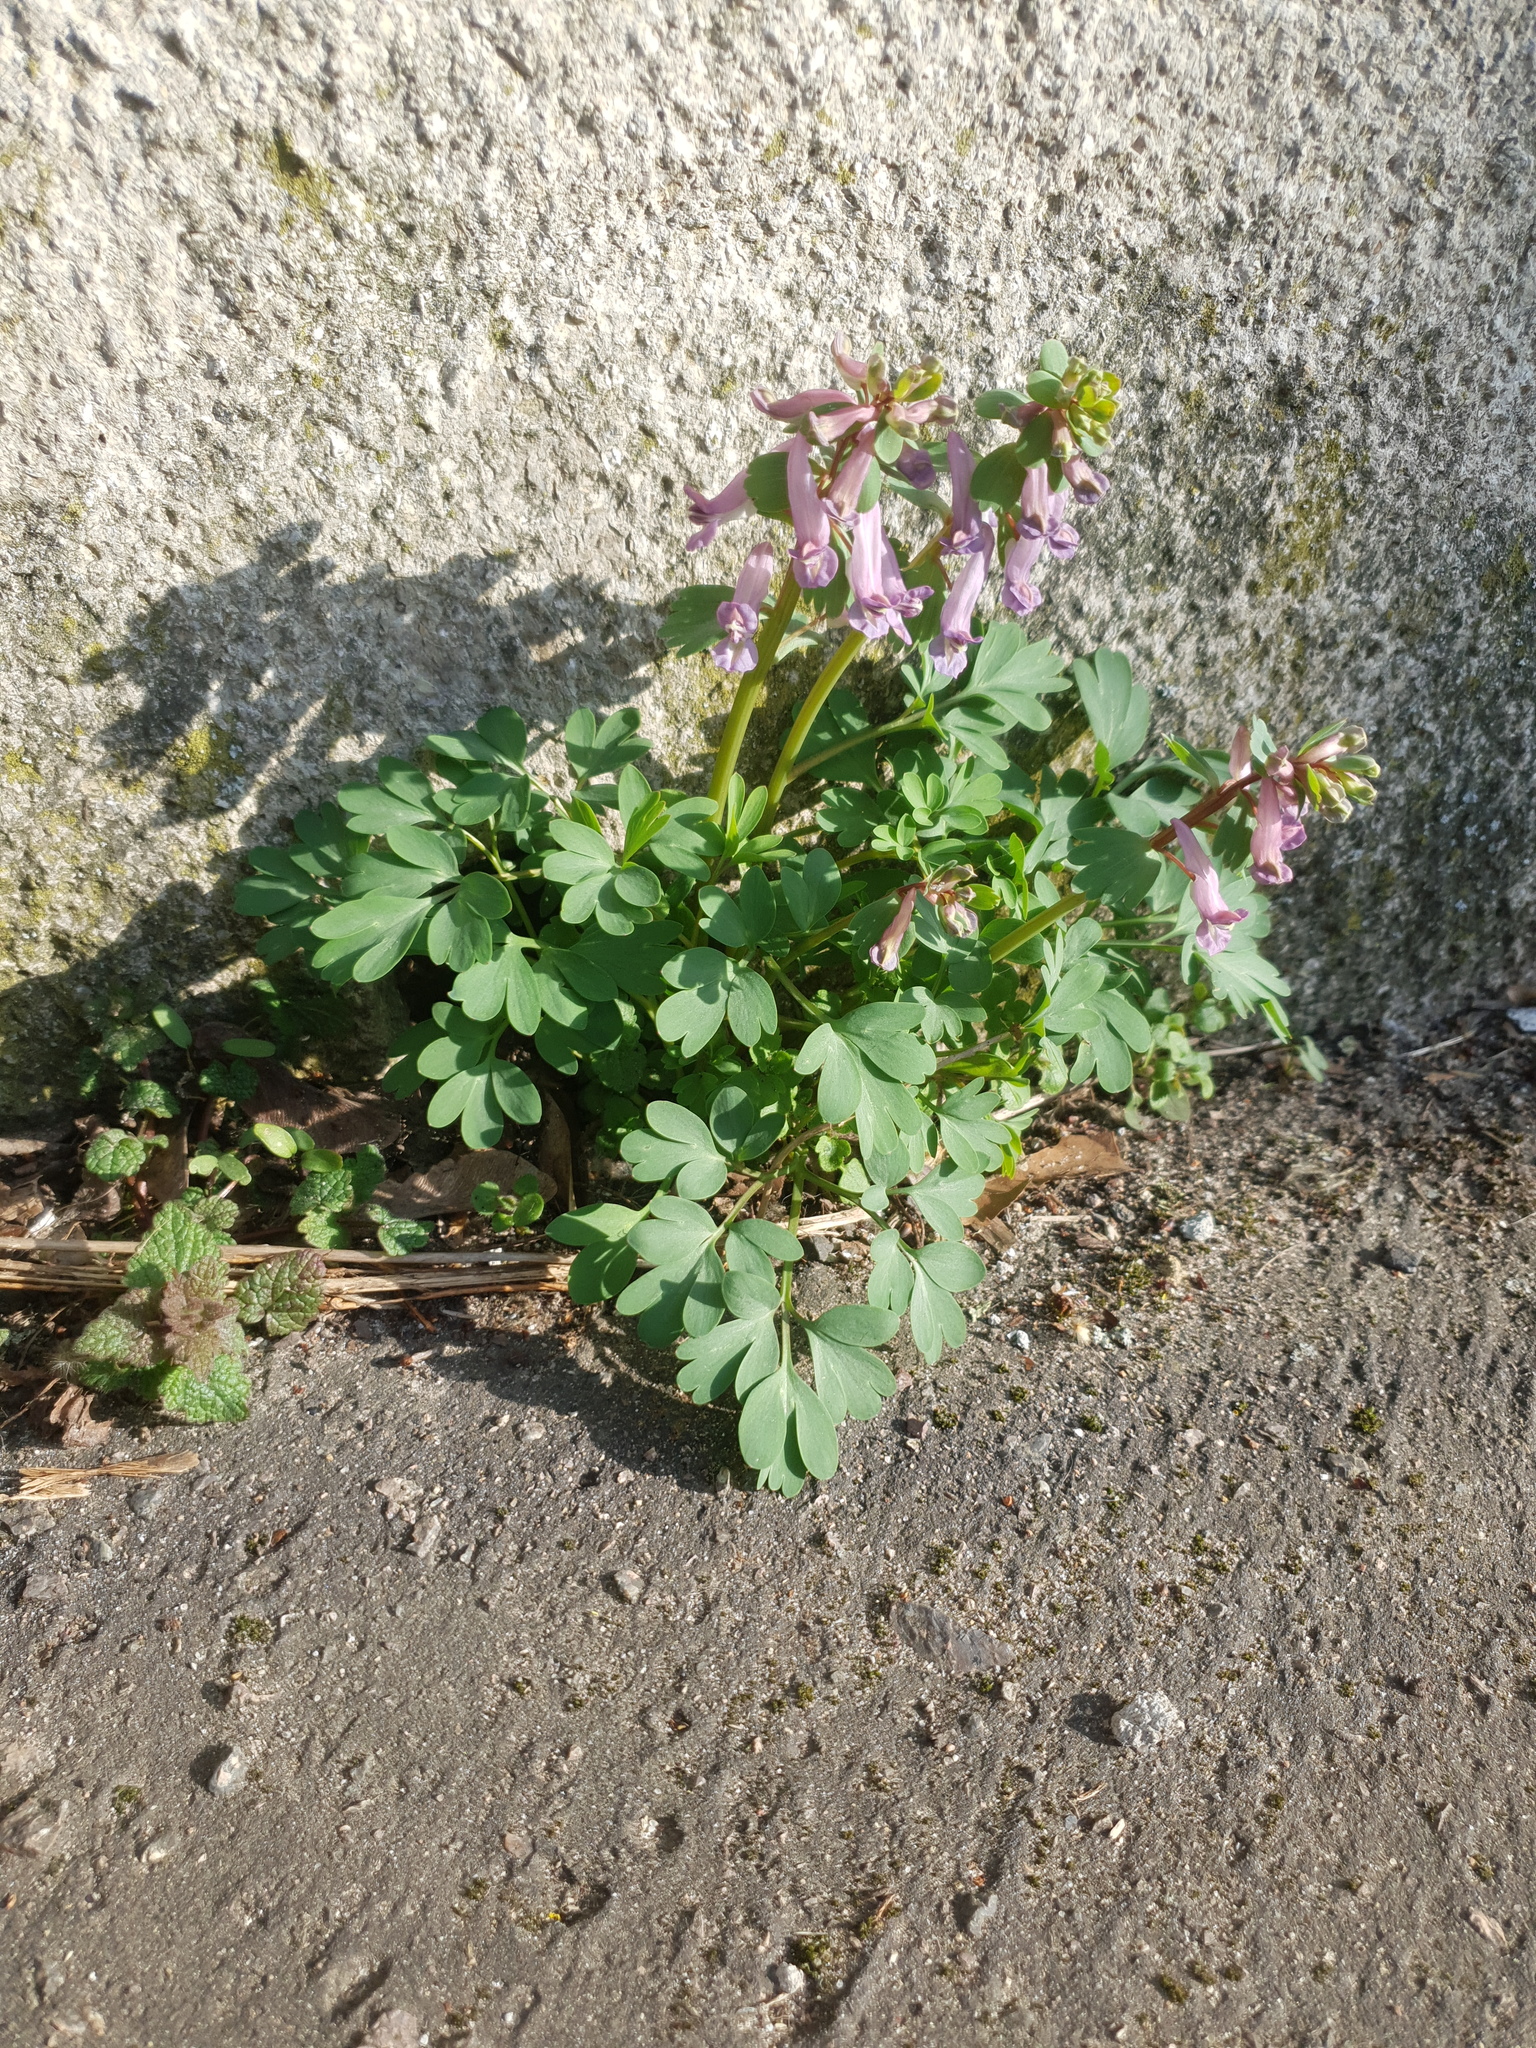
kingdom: Plantae
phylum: Tracheophyta
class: Magnoliopsida
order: Ranunculales
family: Papaveraceae
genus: Corydalis
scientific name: Corydalis hausmannii
